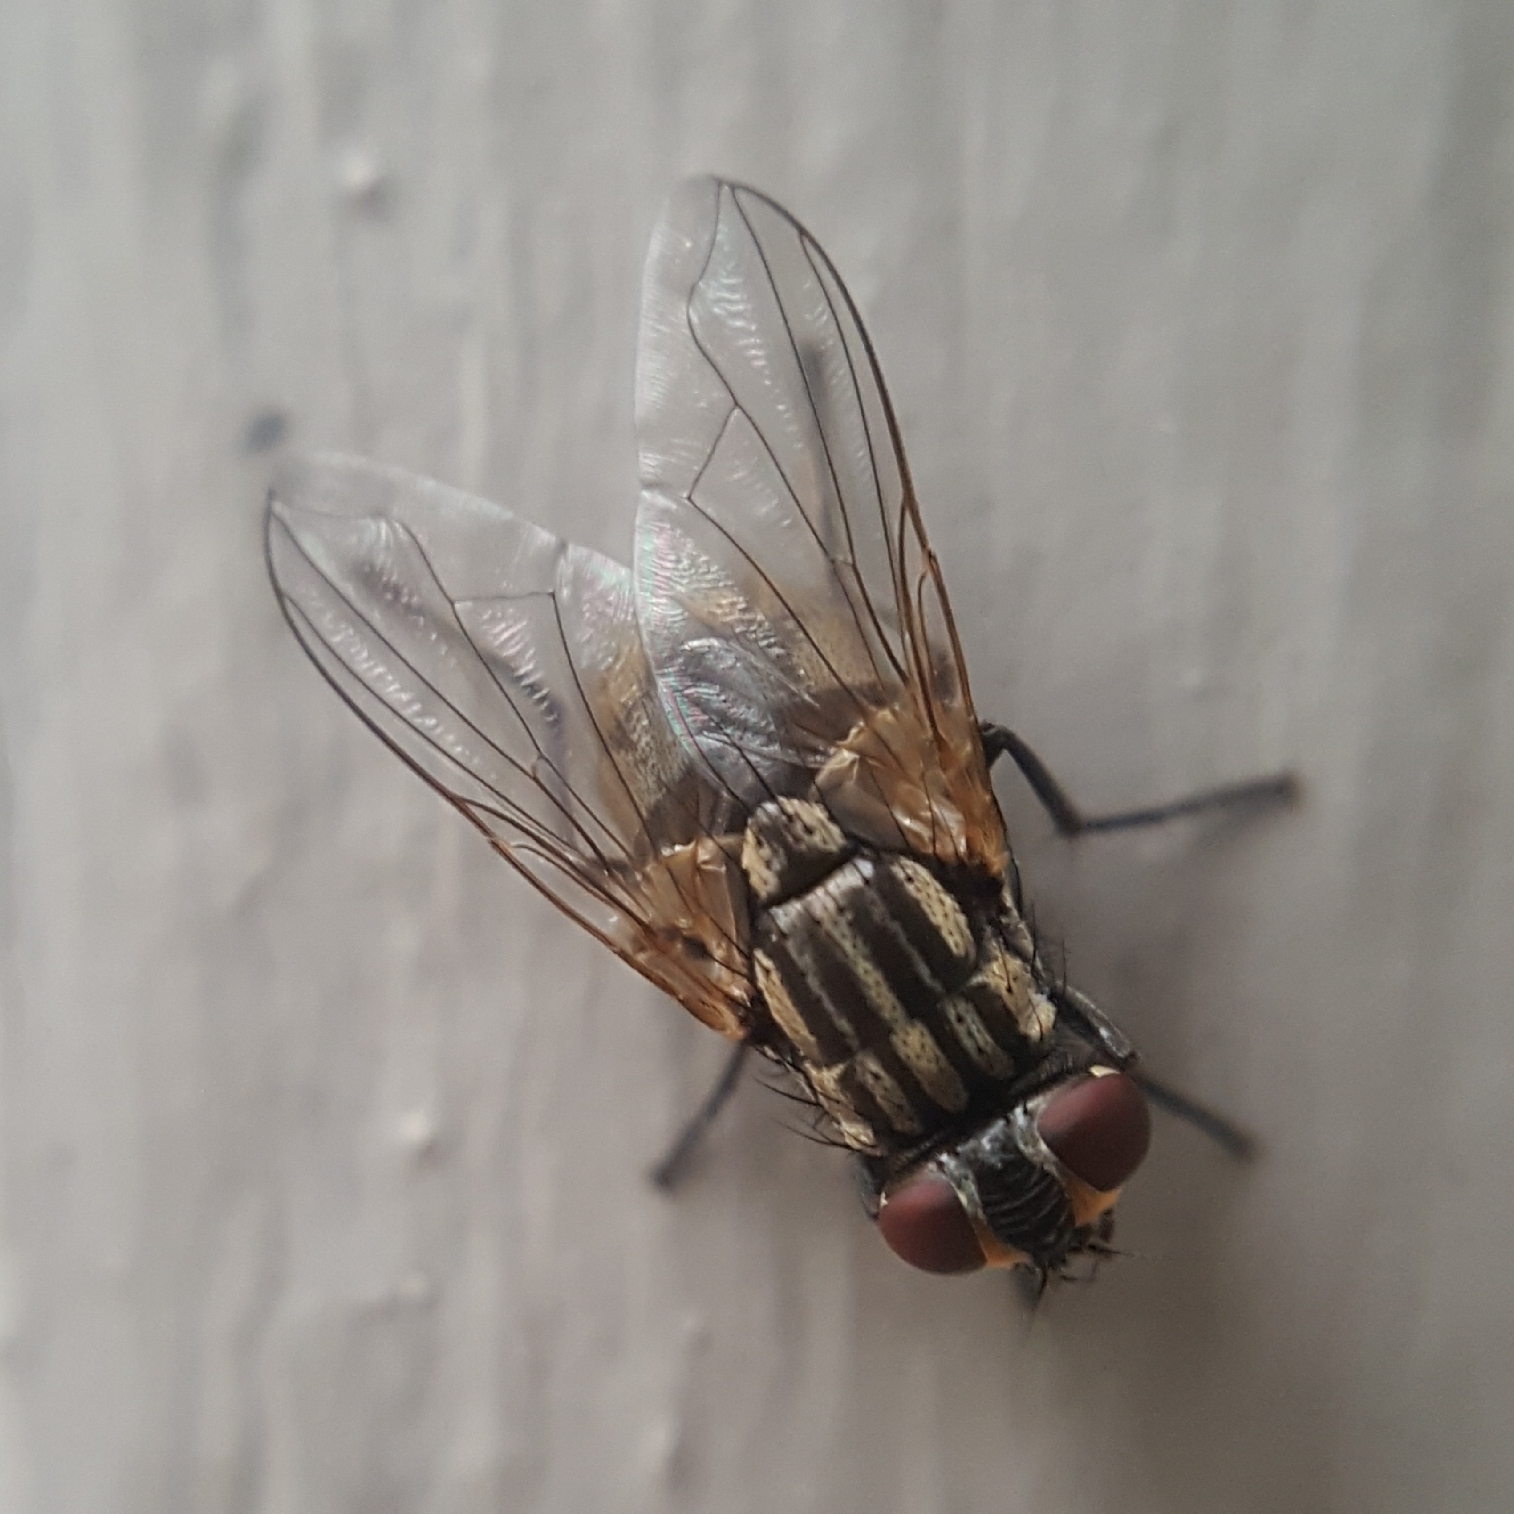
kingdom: Animalia
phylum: Arthropoda
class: Insecta
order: Diptera
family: Muscidae
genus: Musca
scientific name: Musca domestica
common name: House fly
